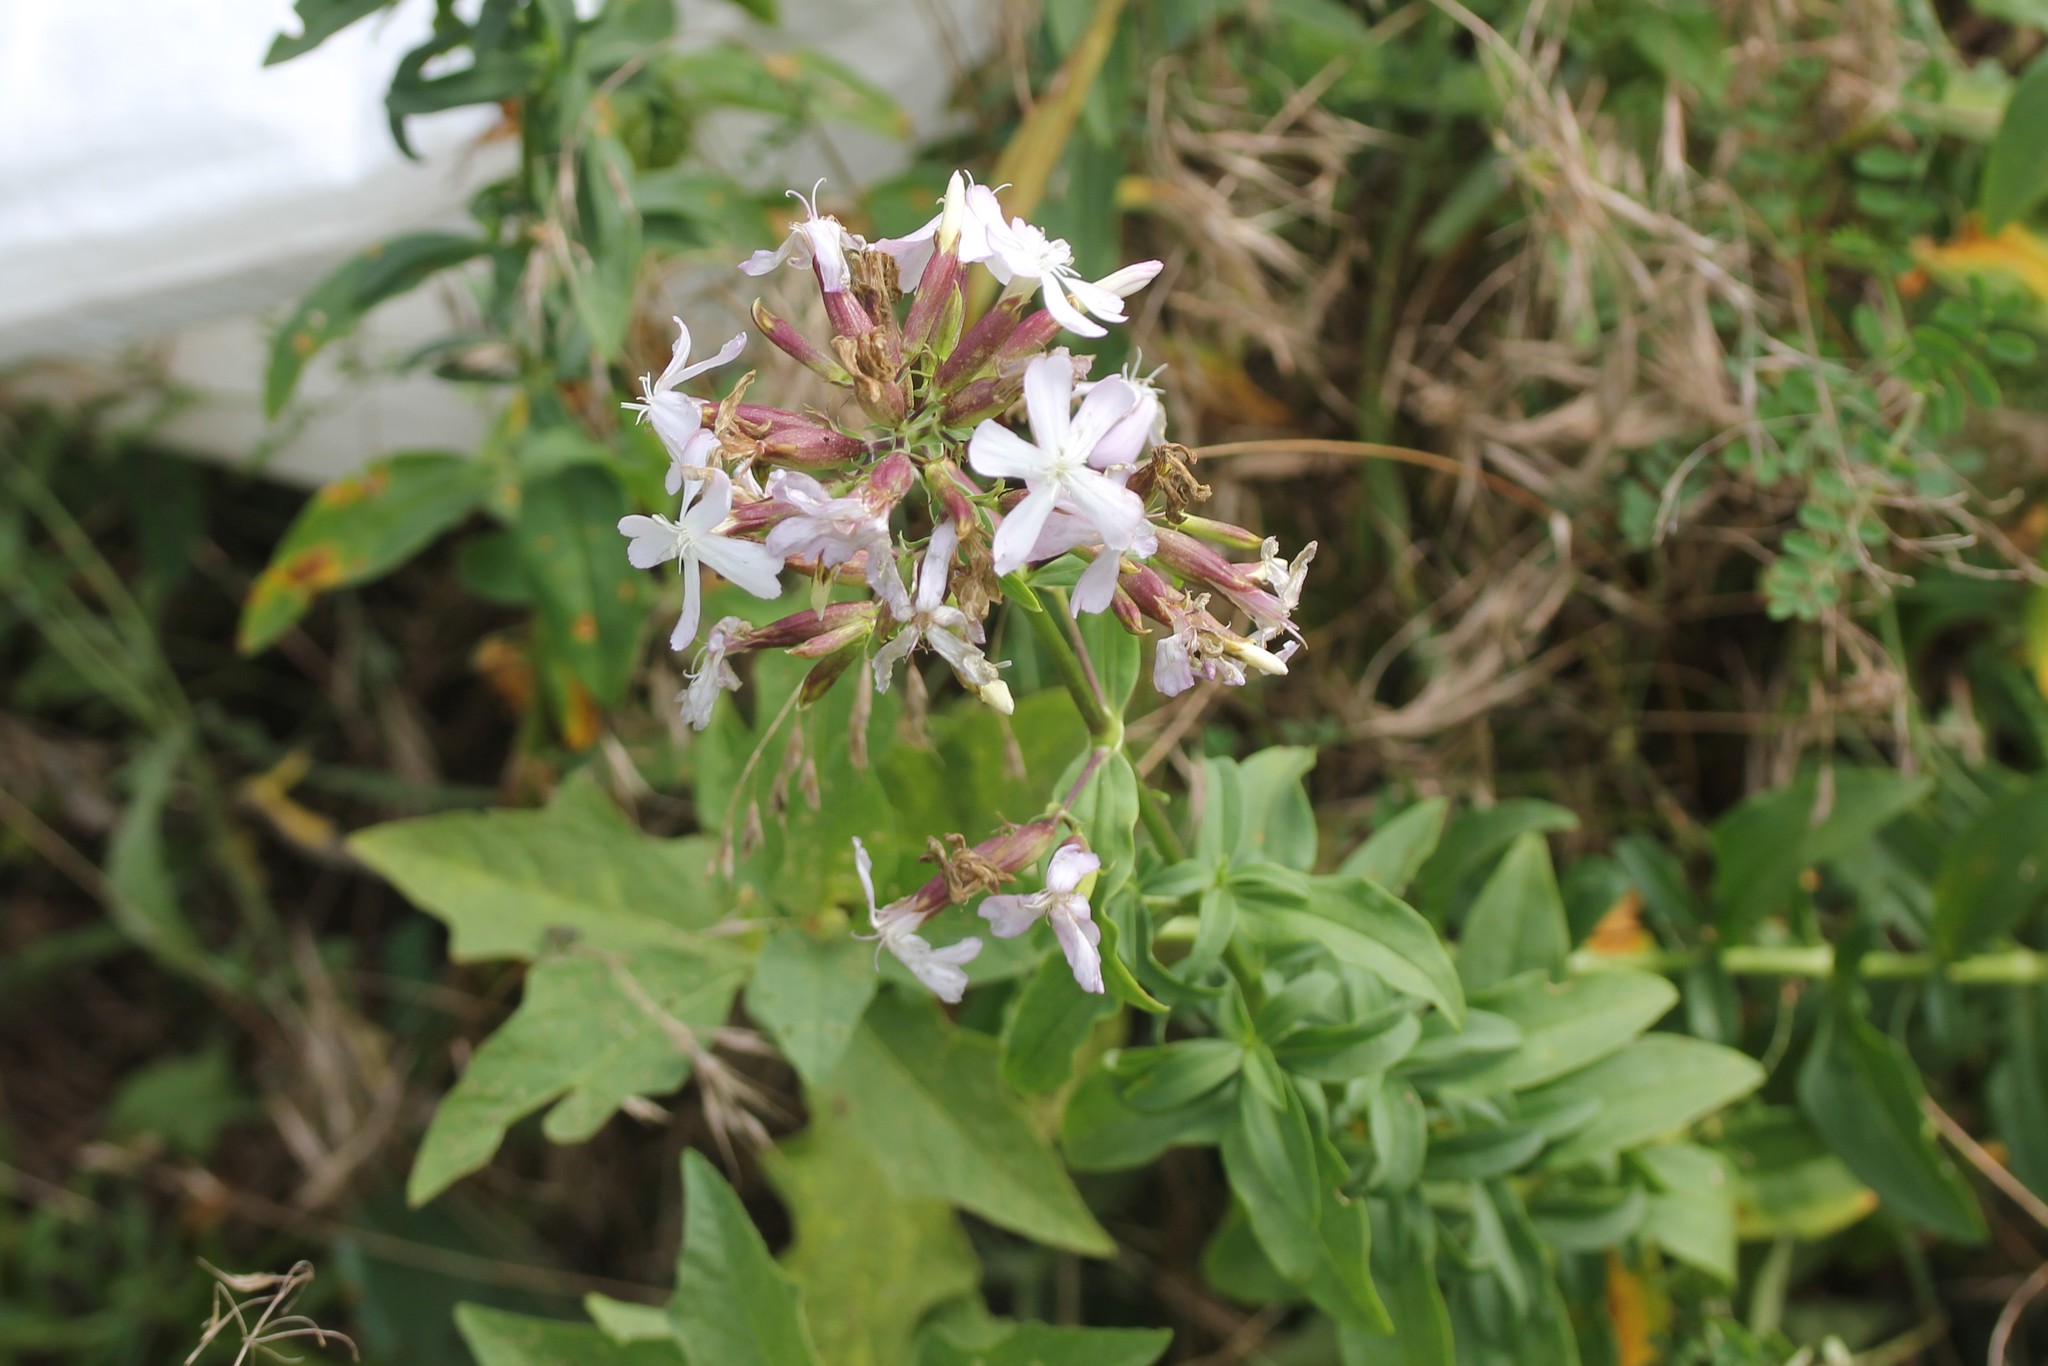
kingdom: Plantae
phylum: Tracheophyta
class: Magnoliopsida
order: Caryophyllales
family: Caryophyllaceae
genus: Saponaria
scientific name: Saponaria officinalis
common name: Soapwort
